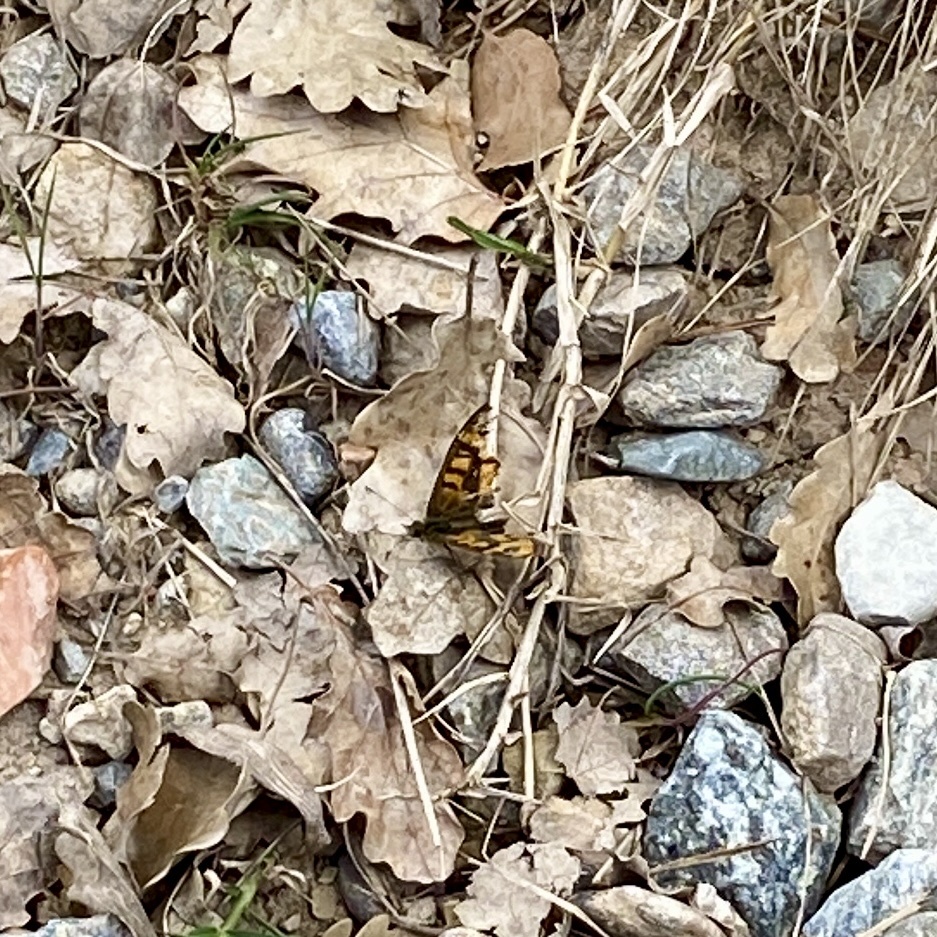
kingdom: Animalia
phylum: Arthropoda
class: Insecta
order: Lepidoptera
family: Nymphalidae
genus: Pararge
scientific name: Pararge aegeria
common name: Speckled wood
